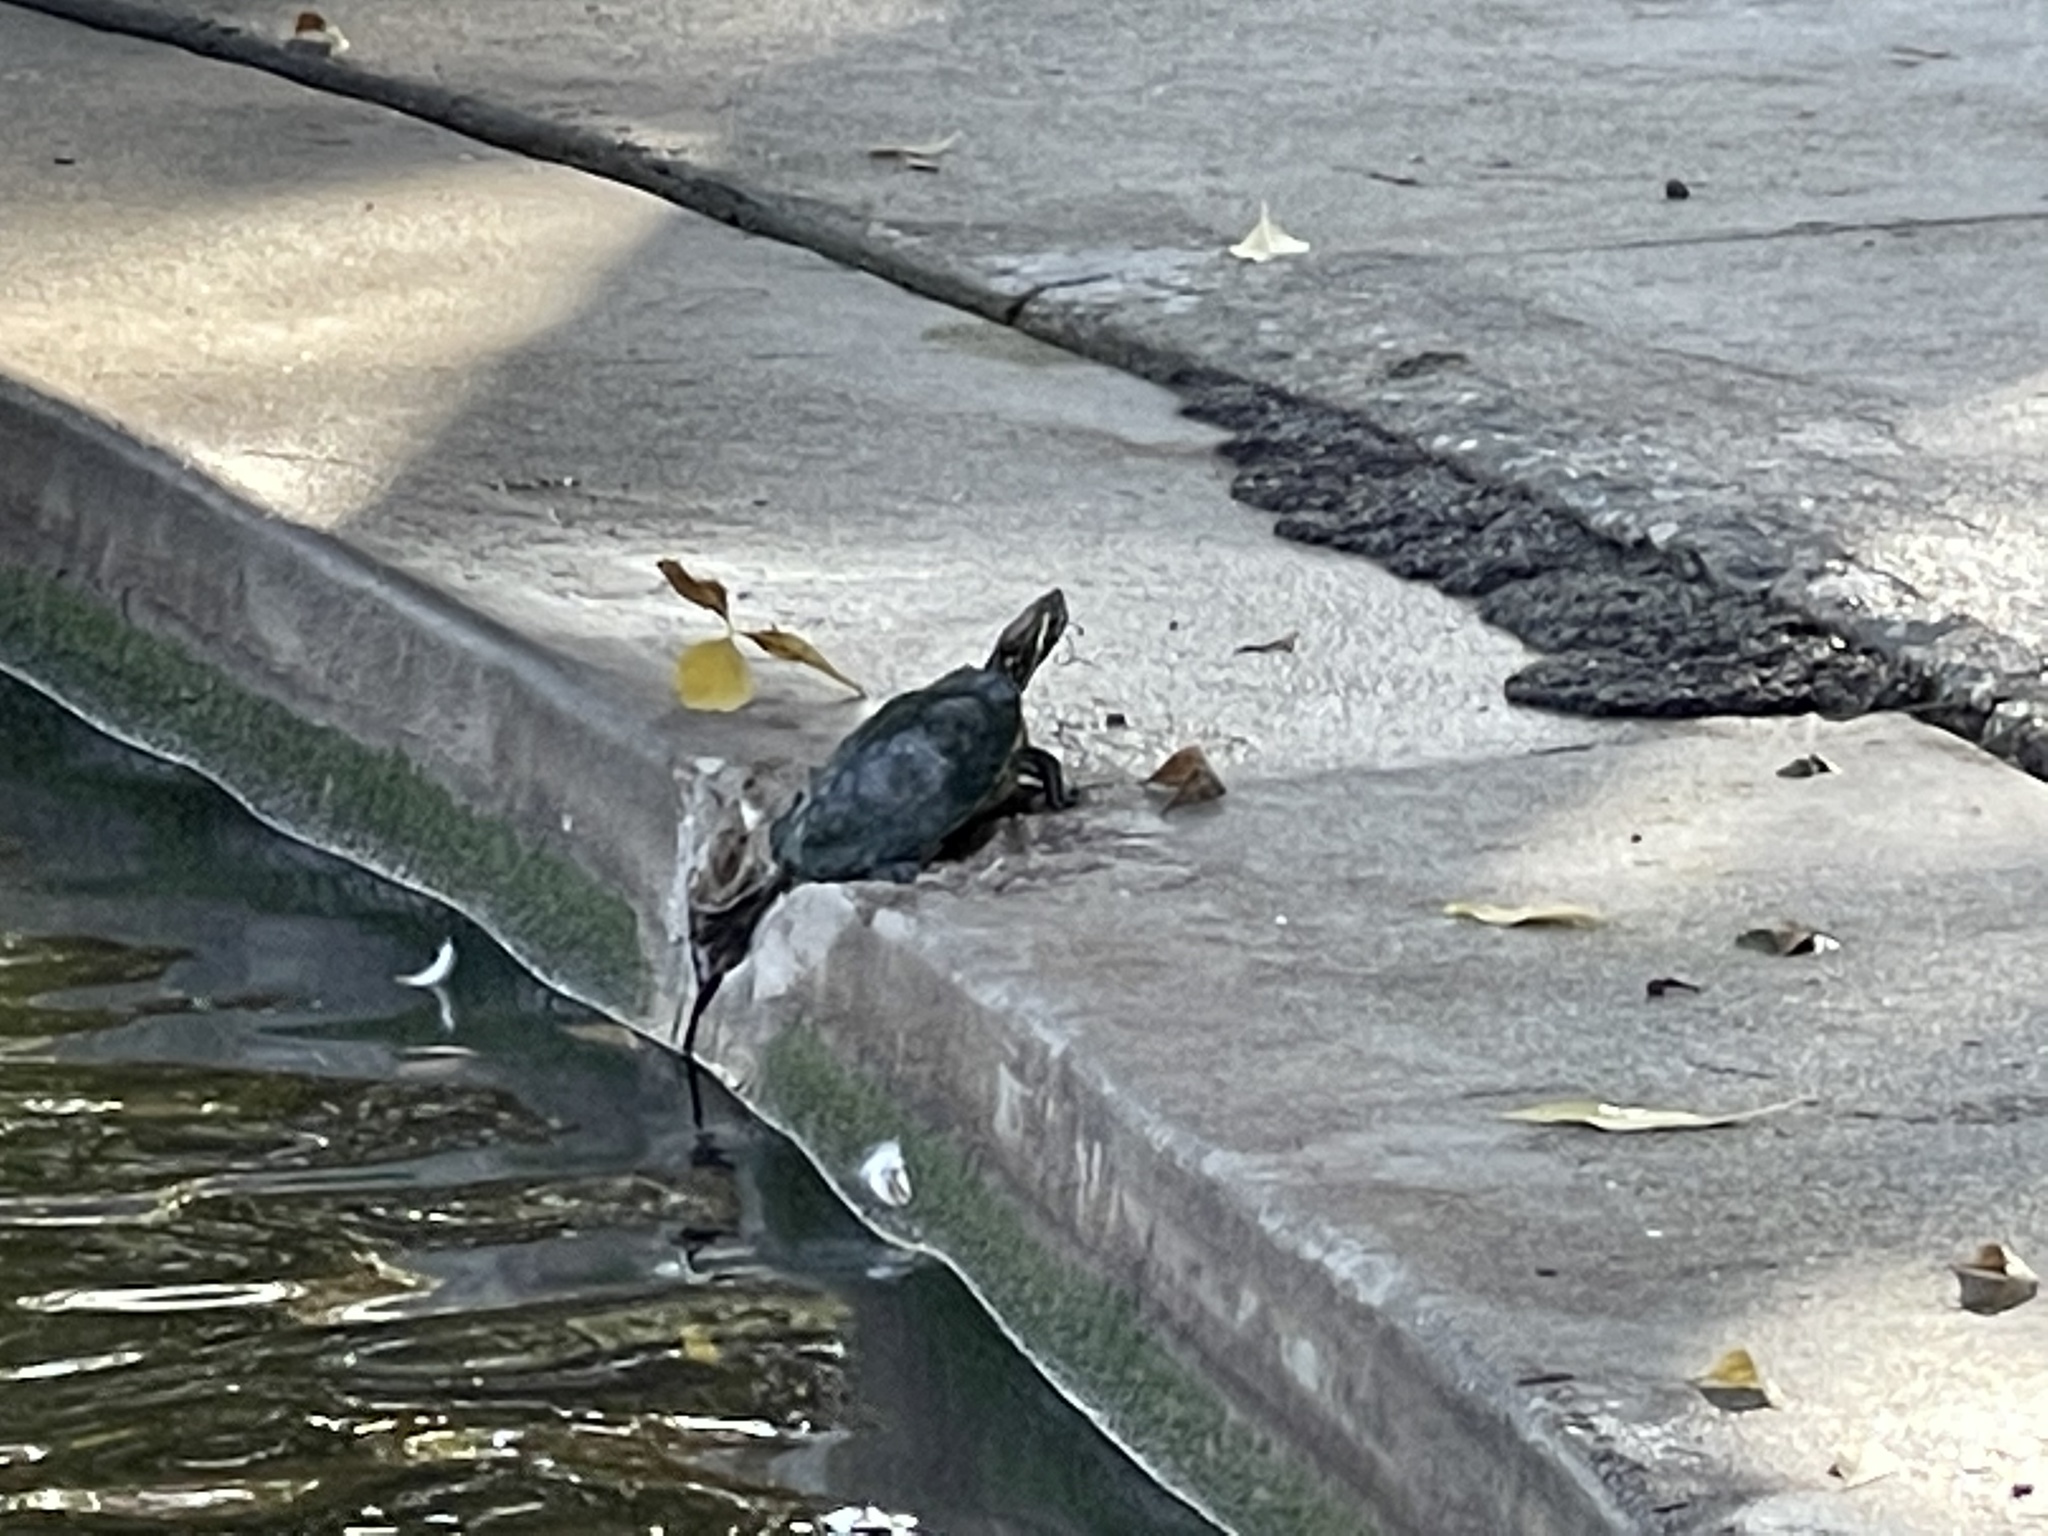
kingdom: Animalia
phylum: Chordata
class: Testudines
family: Emydidae
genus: Trachemys
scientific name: Trachemys scripta
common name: Slider
